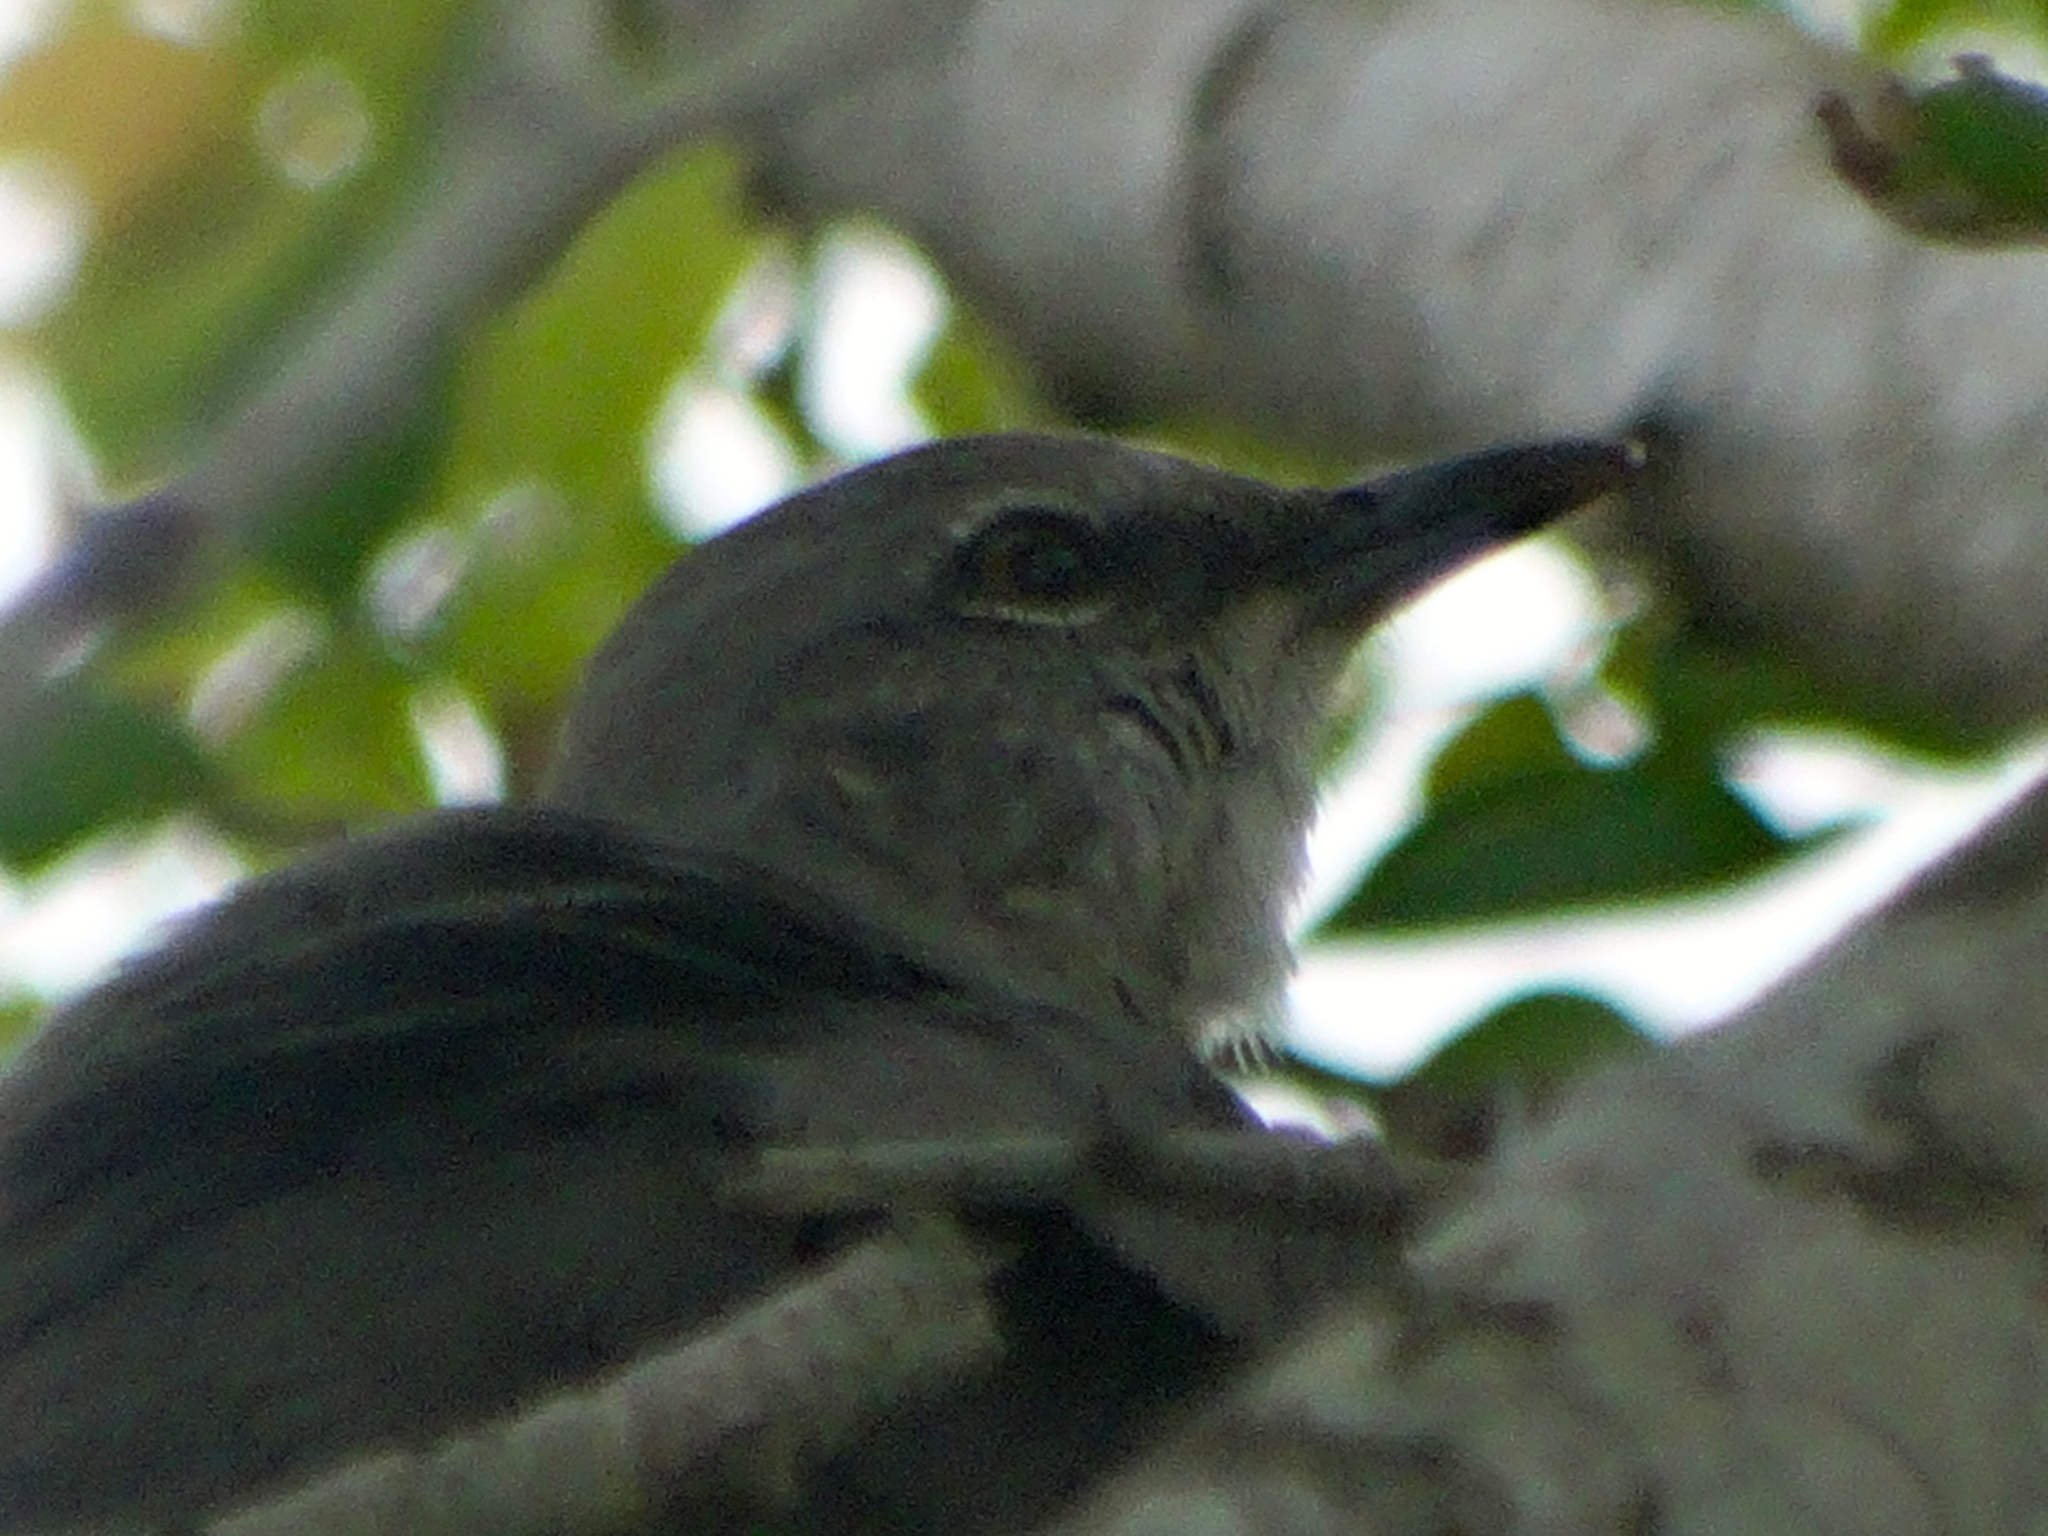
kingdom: Animalia
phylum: Chordata
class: Aves
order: Passeriformes
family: Mimidae
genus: Mimus
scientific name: Mimus polyglottos
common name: Northern mockingbird
